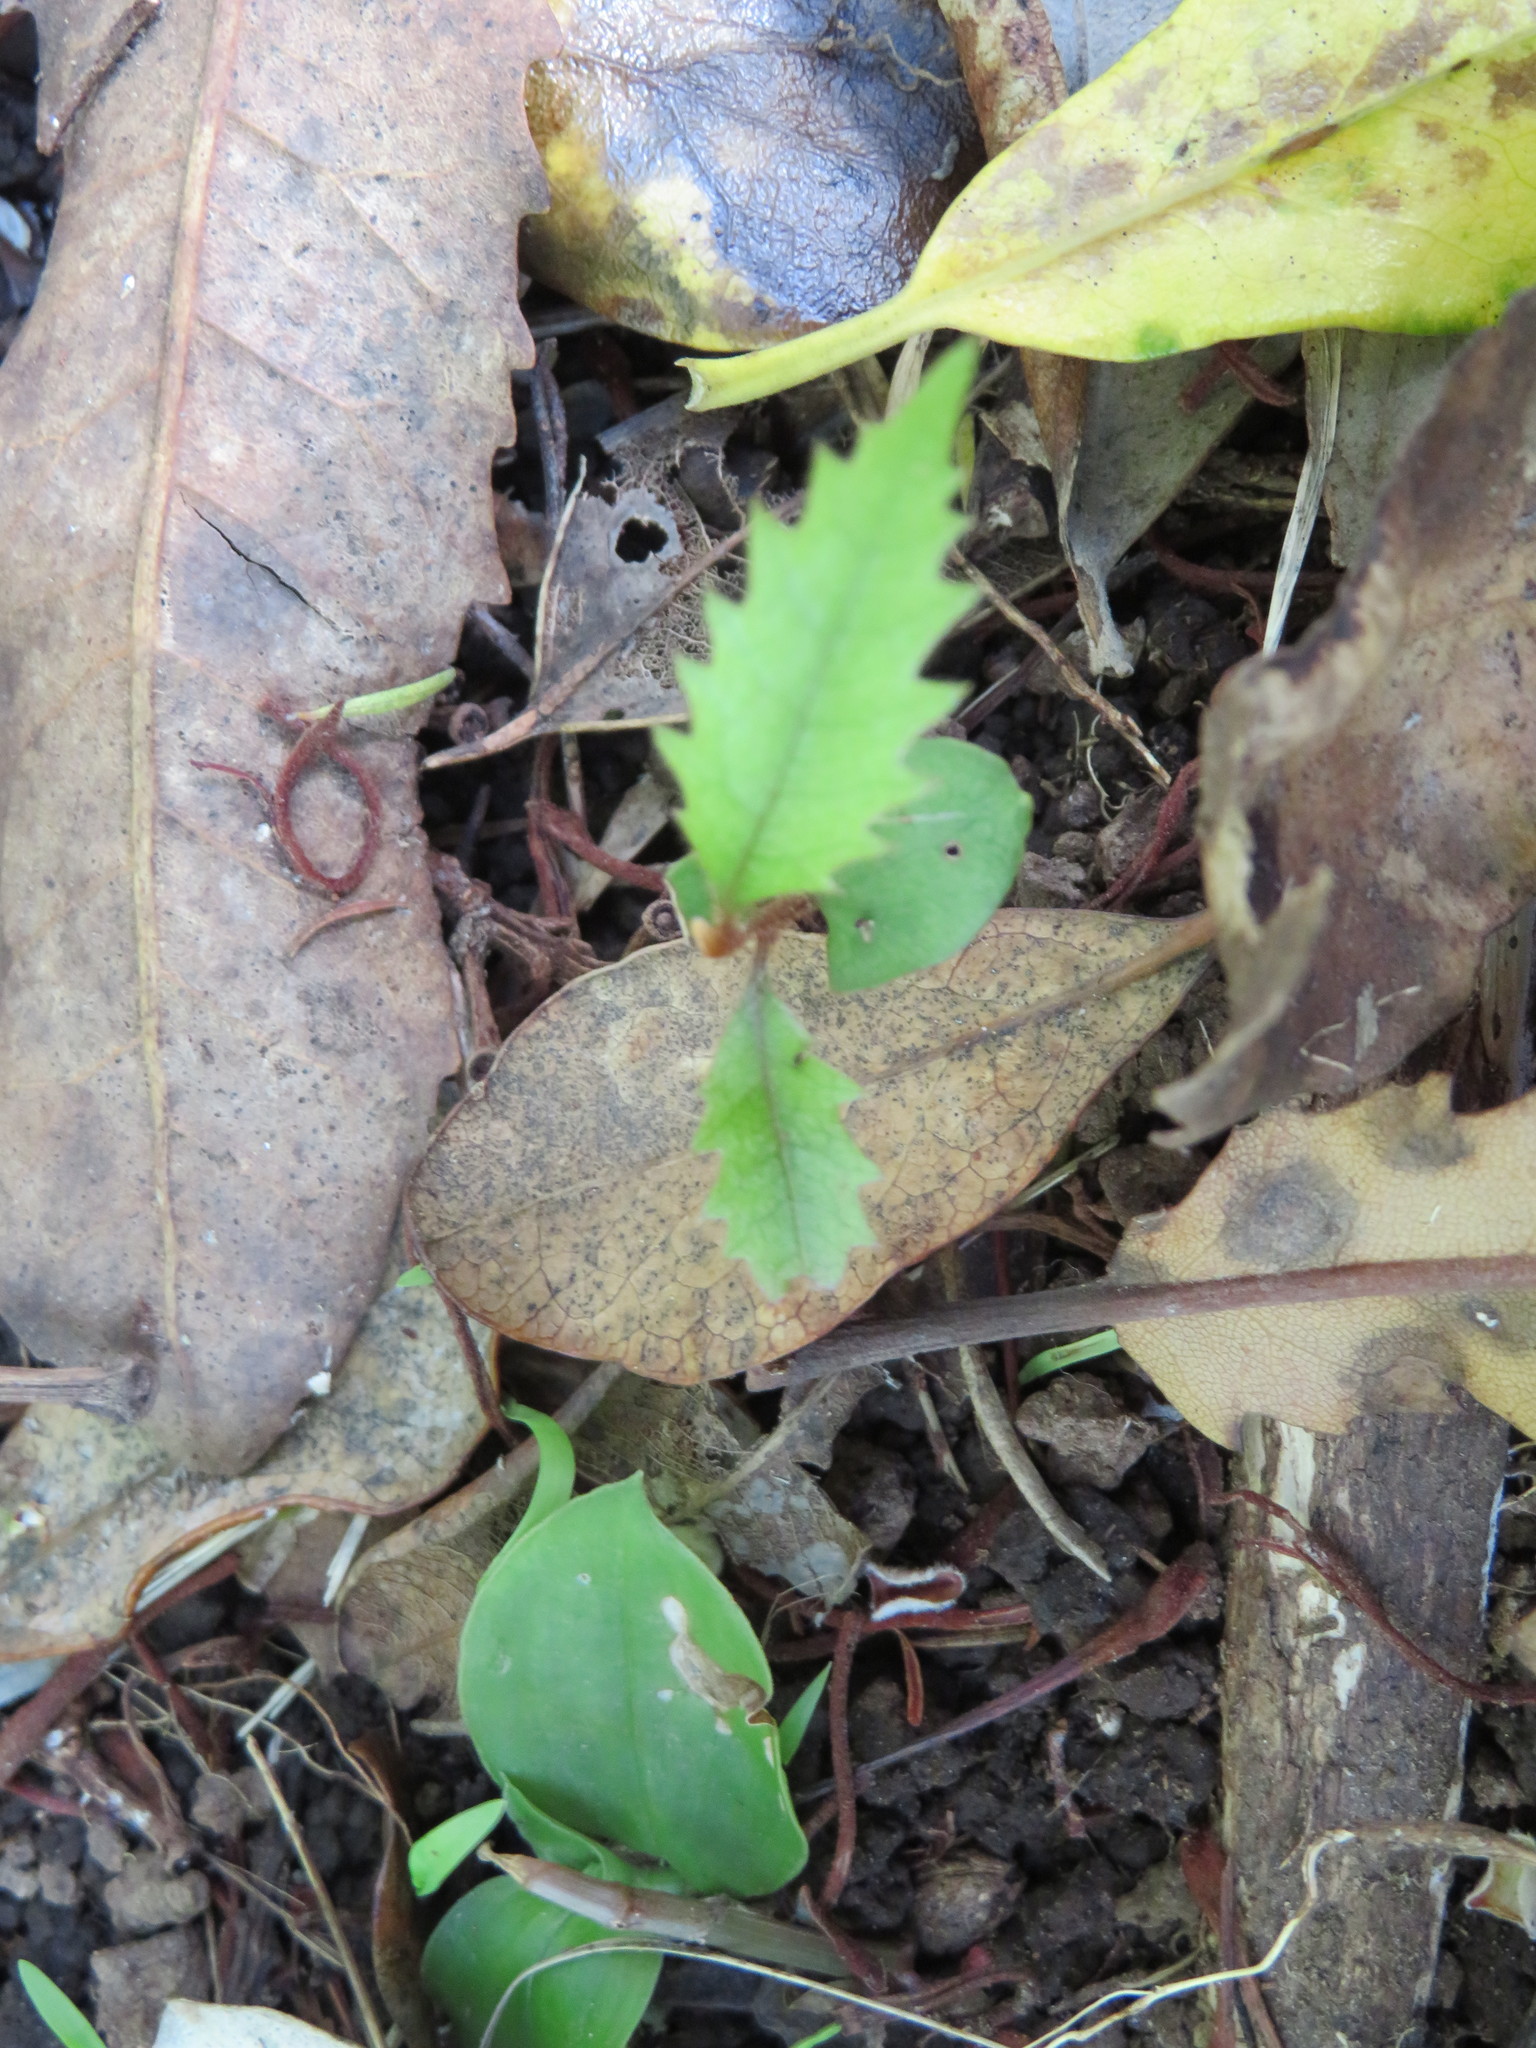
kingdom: Plantae
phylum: Tracheophyta
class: Magnoliopsida
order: Proteales
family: Proteaceae
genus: Knightia
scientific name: Knightia excelsa
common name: New zealand-honeysuckle
